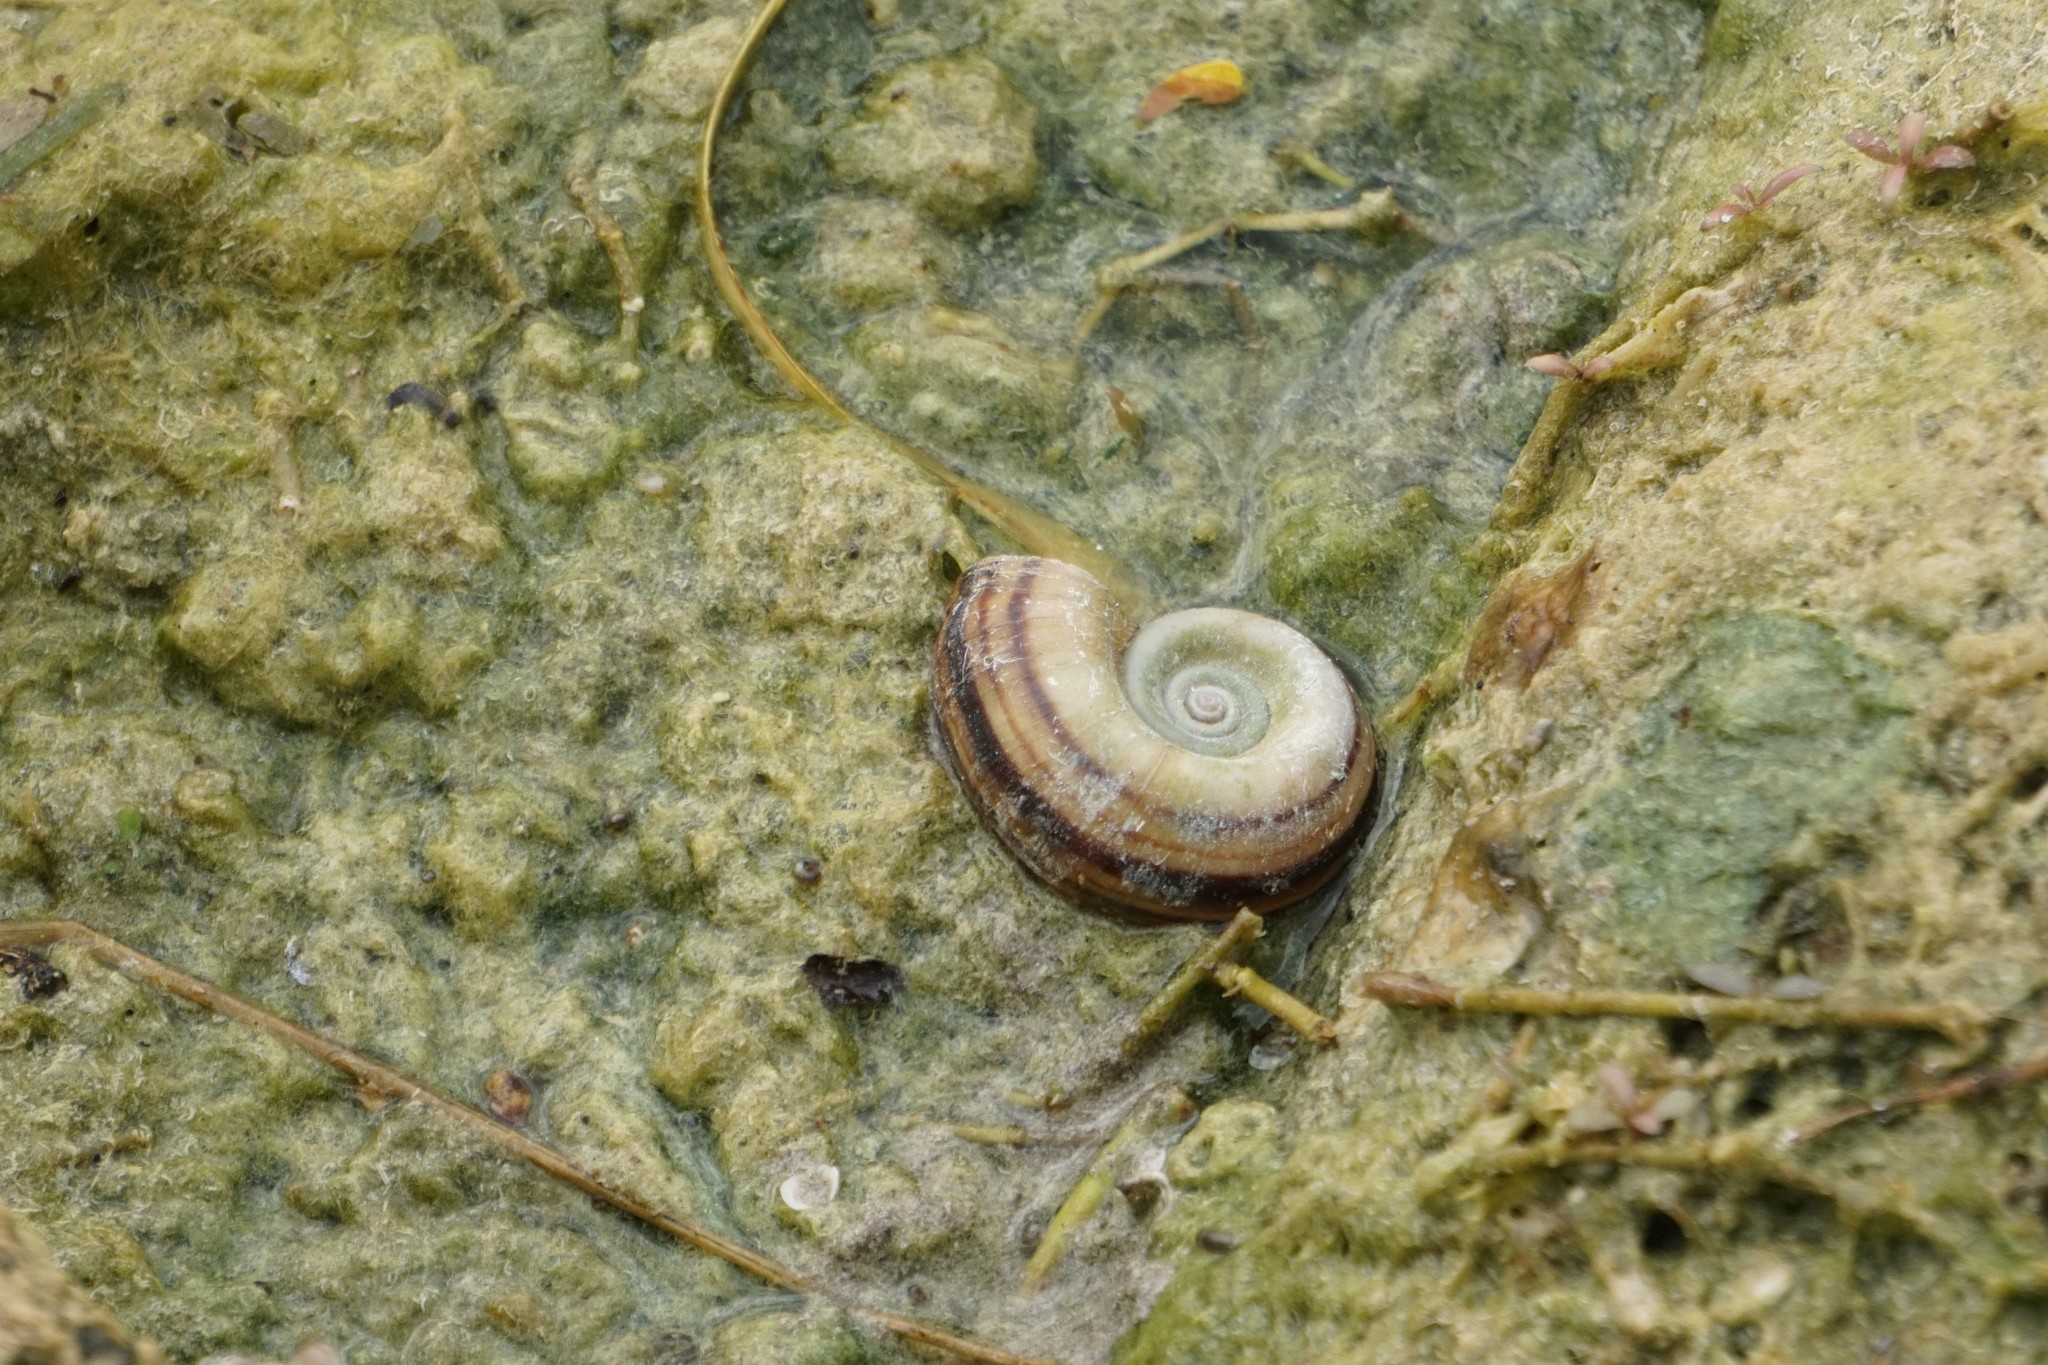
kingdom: Animalia
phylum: Mollusca
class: Gastropoda
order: Architaenioglossa
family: Ampullariidae
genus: Marisa
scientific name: Marisa cornuarietis
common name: Giant ramshorn snail
